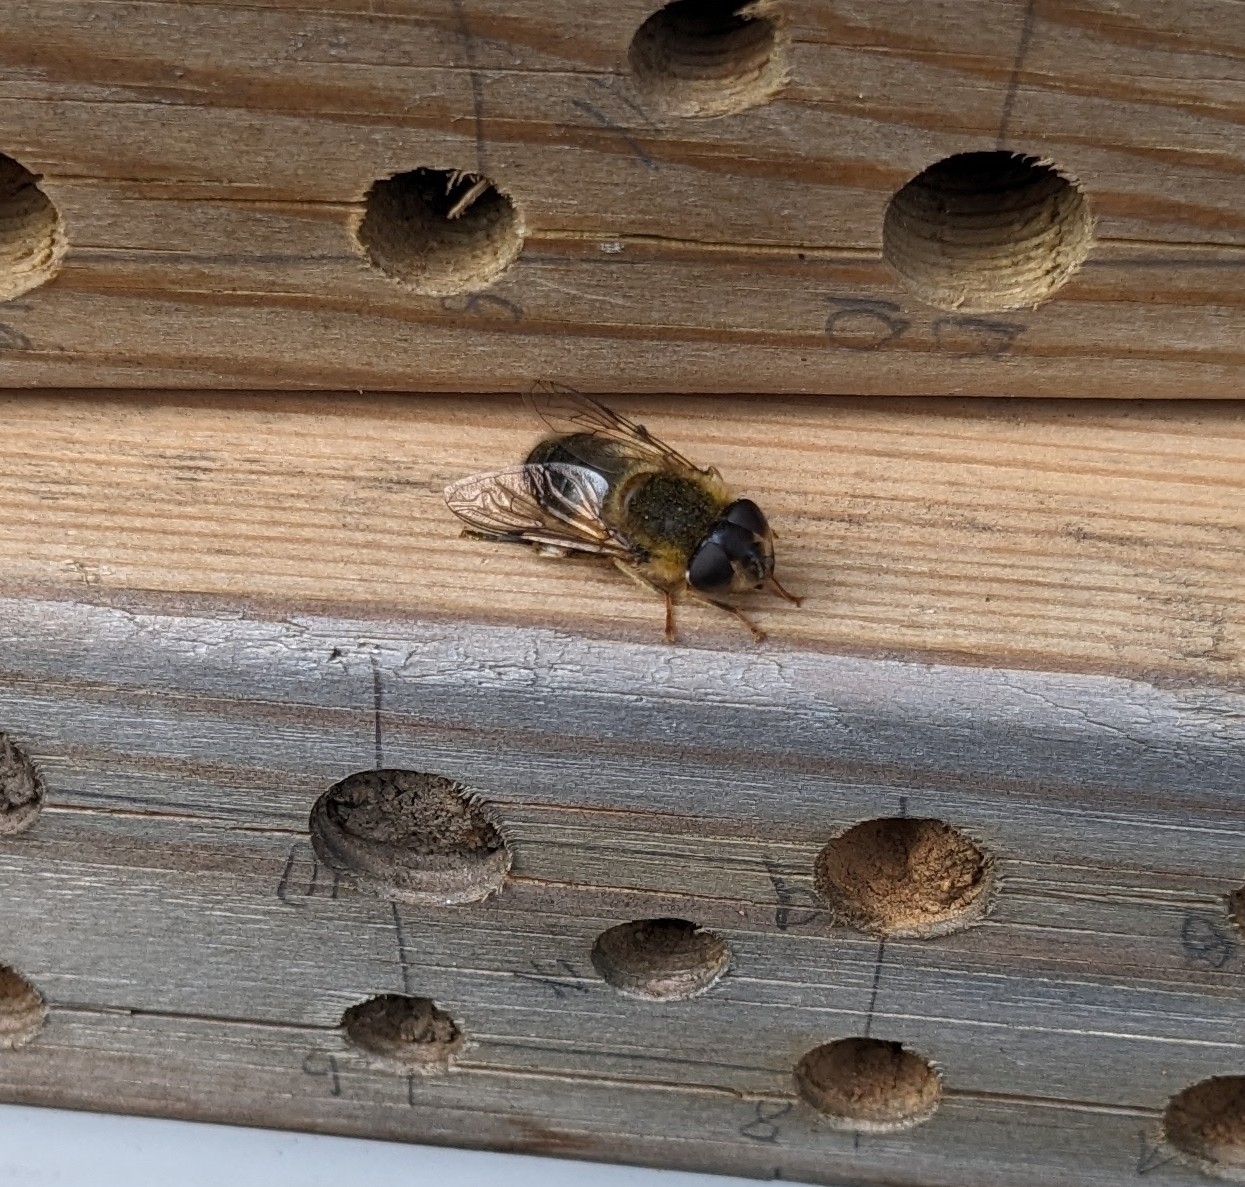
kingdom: Animalia
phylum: Arthropoda
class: Insecta
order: Diptera
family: Syrphidae
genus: Eristalis
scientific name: Eristalis pertinax
